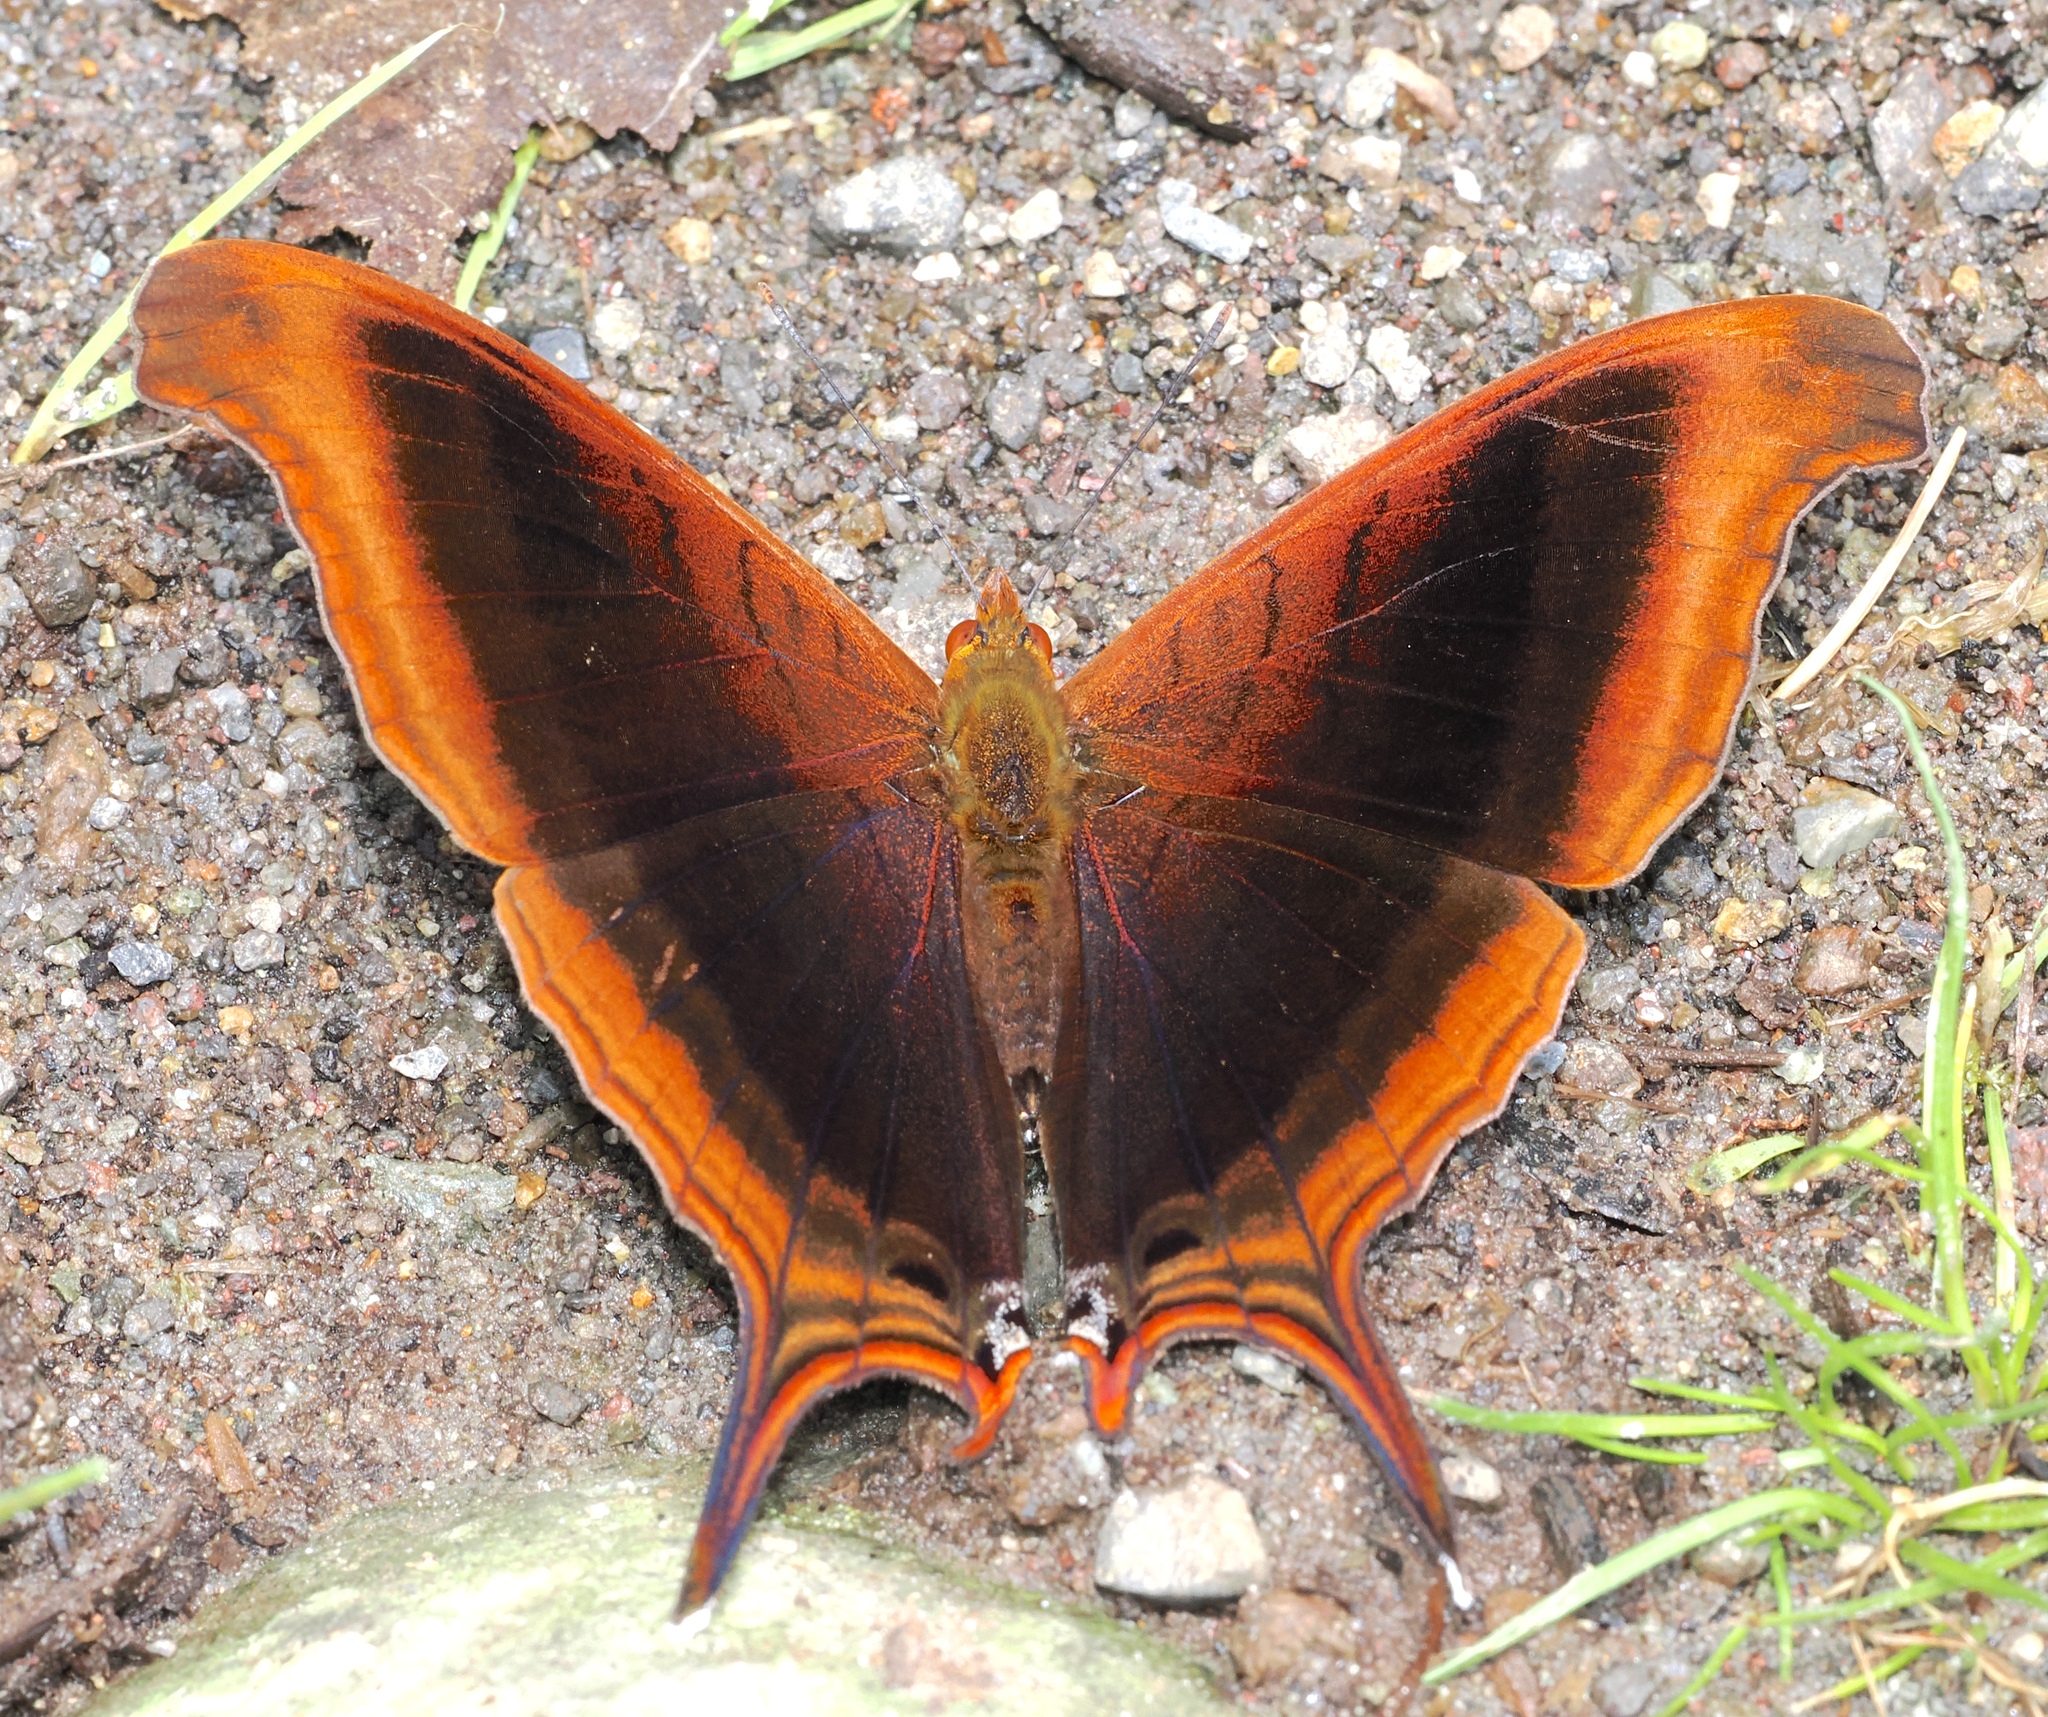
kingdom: Animalia
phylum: Arthropoda
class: Insecta
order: Lepidoptera
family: Nymphalidae
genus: Marpesia
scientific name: Marpesia zerynthia
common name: Waiter daggerwing
